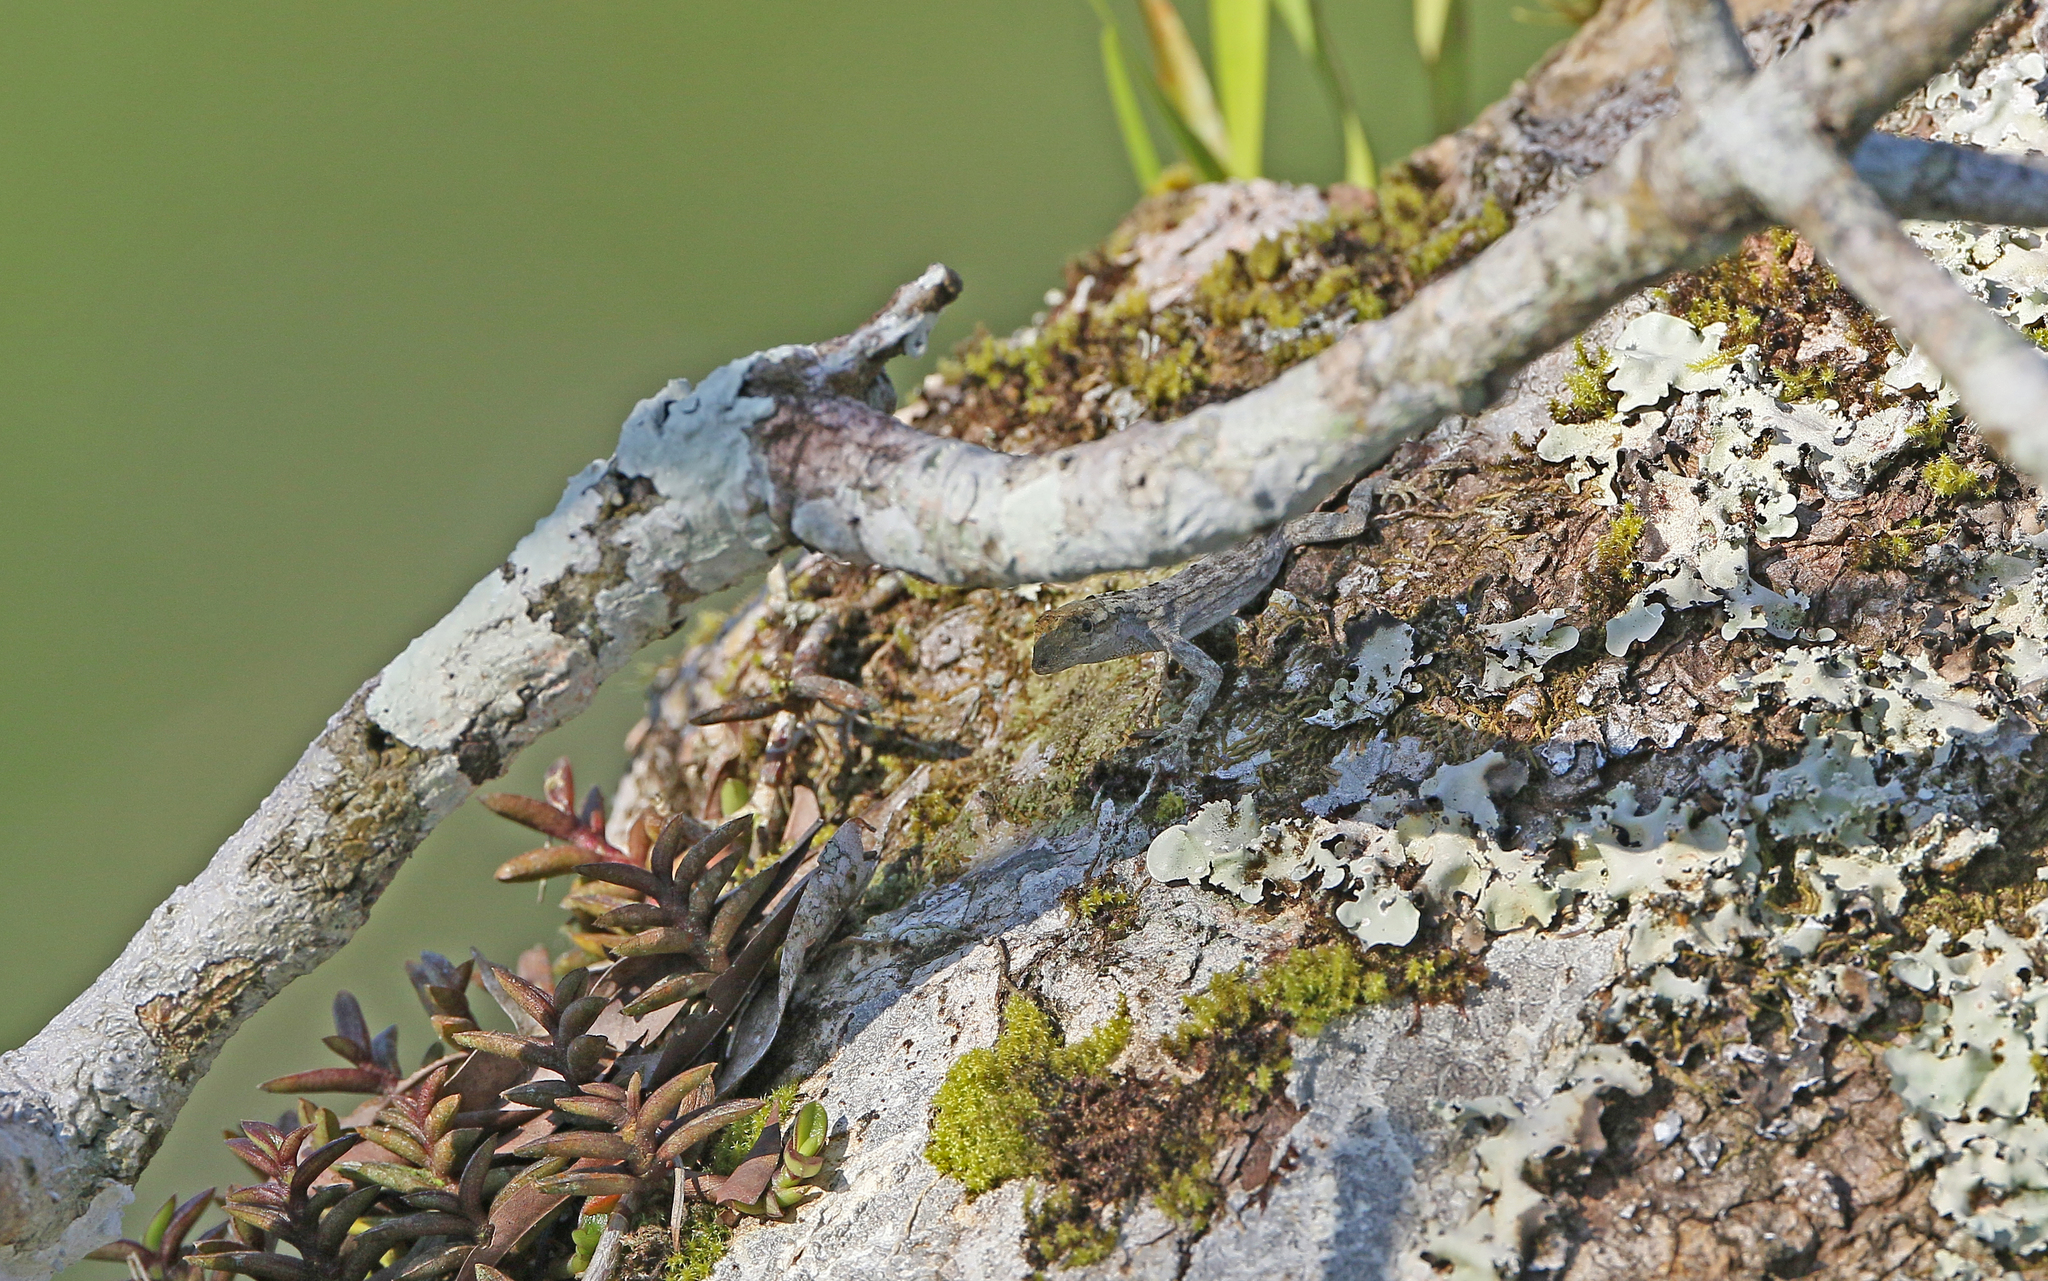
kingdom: Animalia
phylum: Chordata
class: Squamata
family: Dactyloidae
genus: Anolis
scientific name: Anolis ortonii
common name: Bark anole
